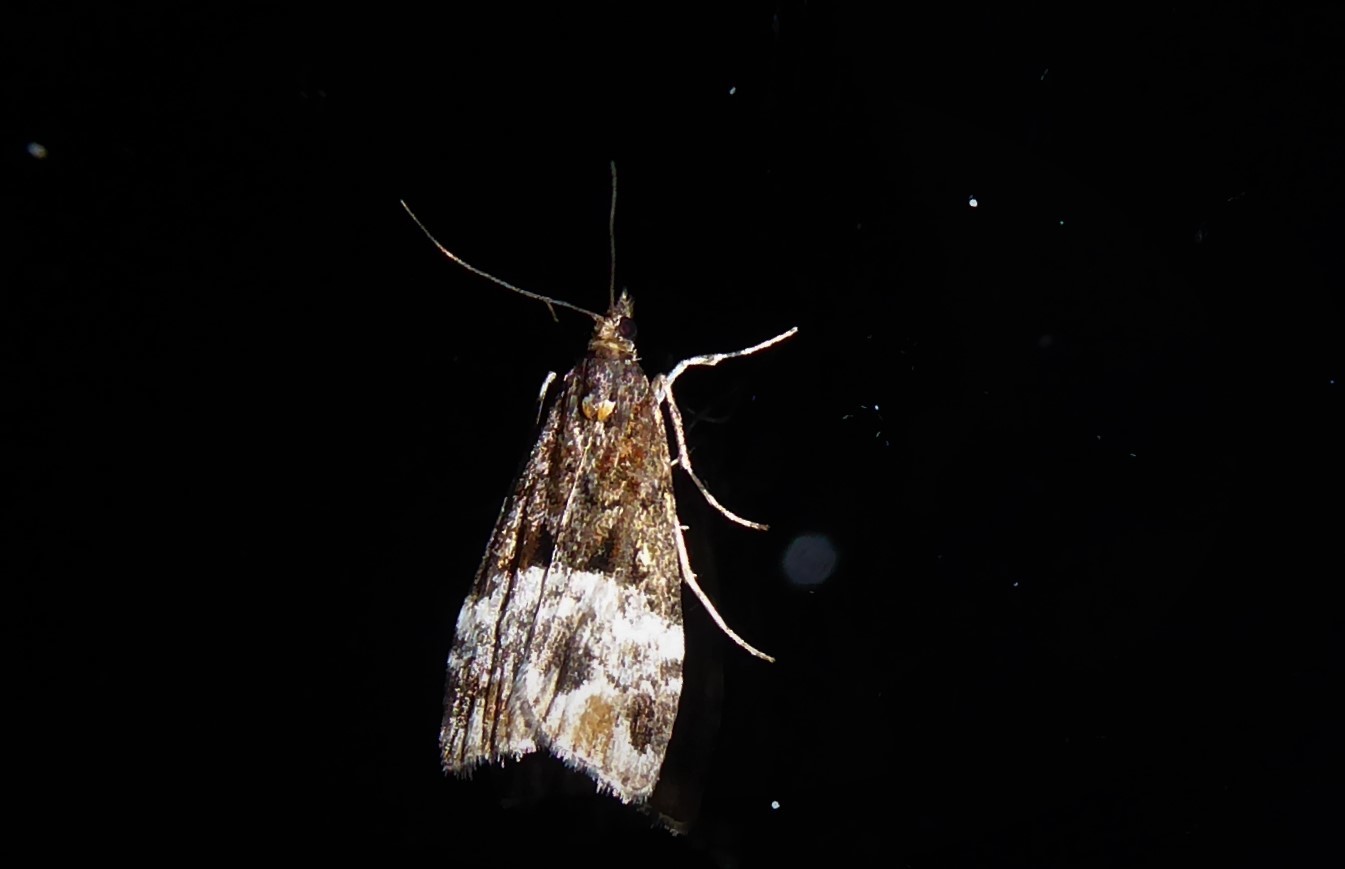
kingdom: Animalia
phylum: Arthropoda
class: Insecta
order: Lepidoptera
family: Crambidae
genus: Scoparia
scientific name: Scoparia minusculalis
